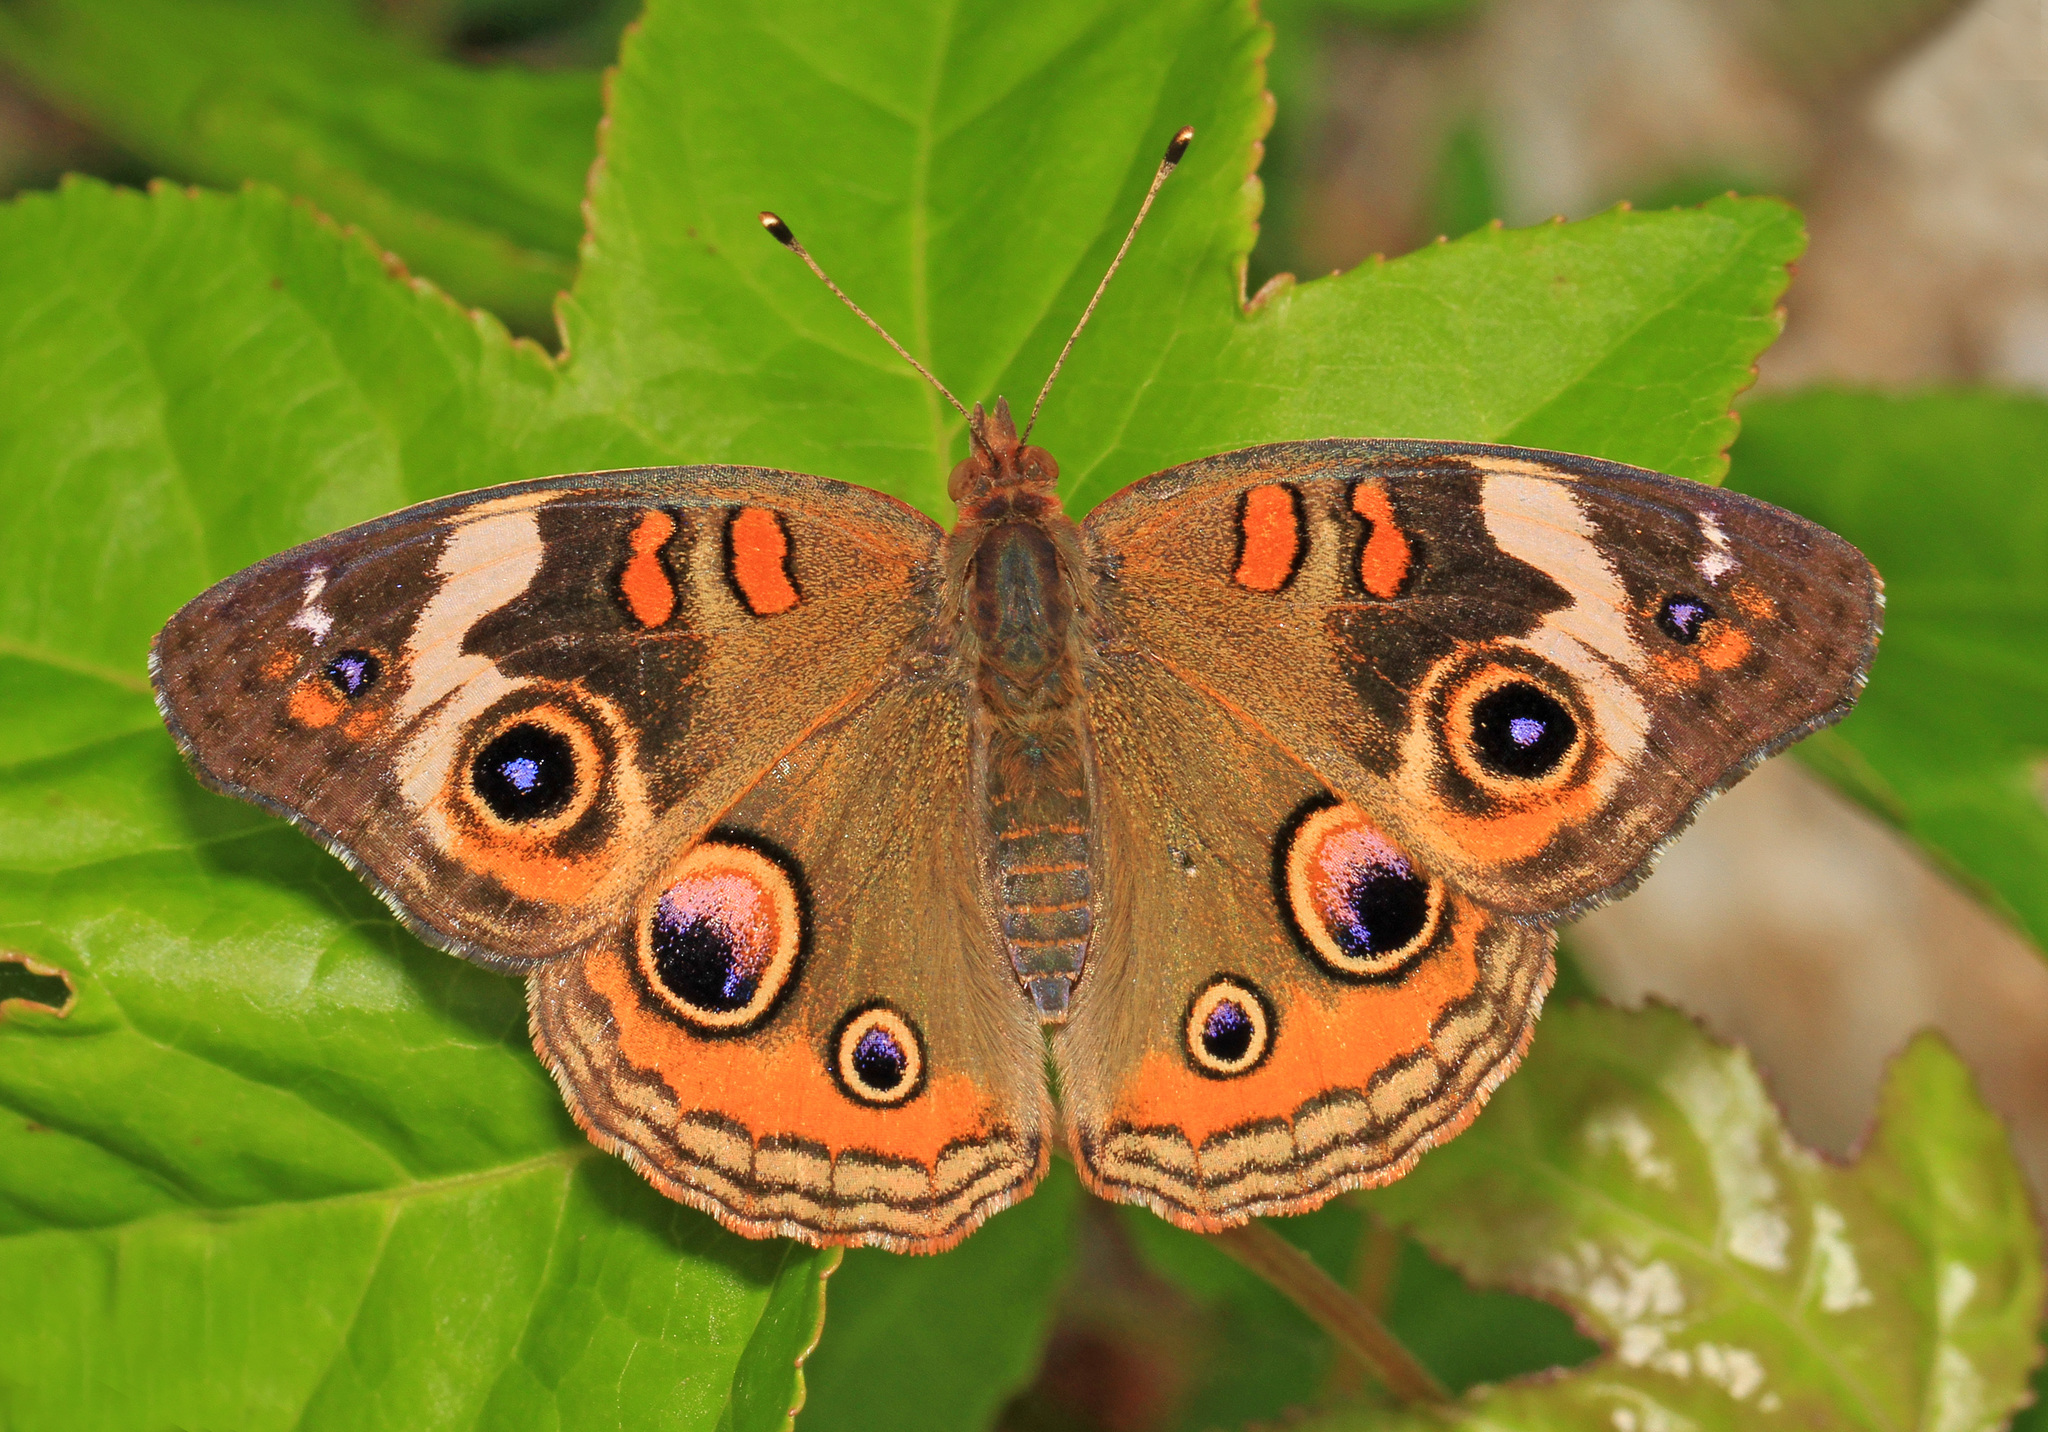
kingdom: Animalia
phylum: Arthropoda
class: Insecta
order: Lepidoptera
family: Nymphalidae
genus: Junonia
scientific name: Junonia coenia
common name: Common buckeye
